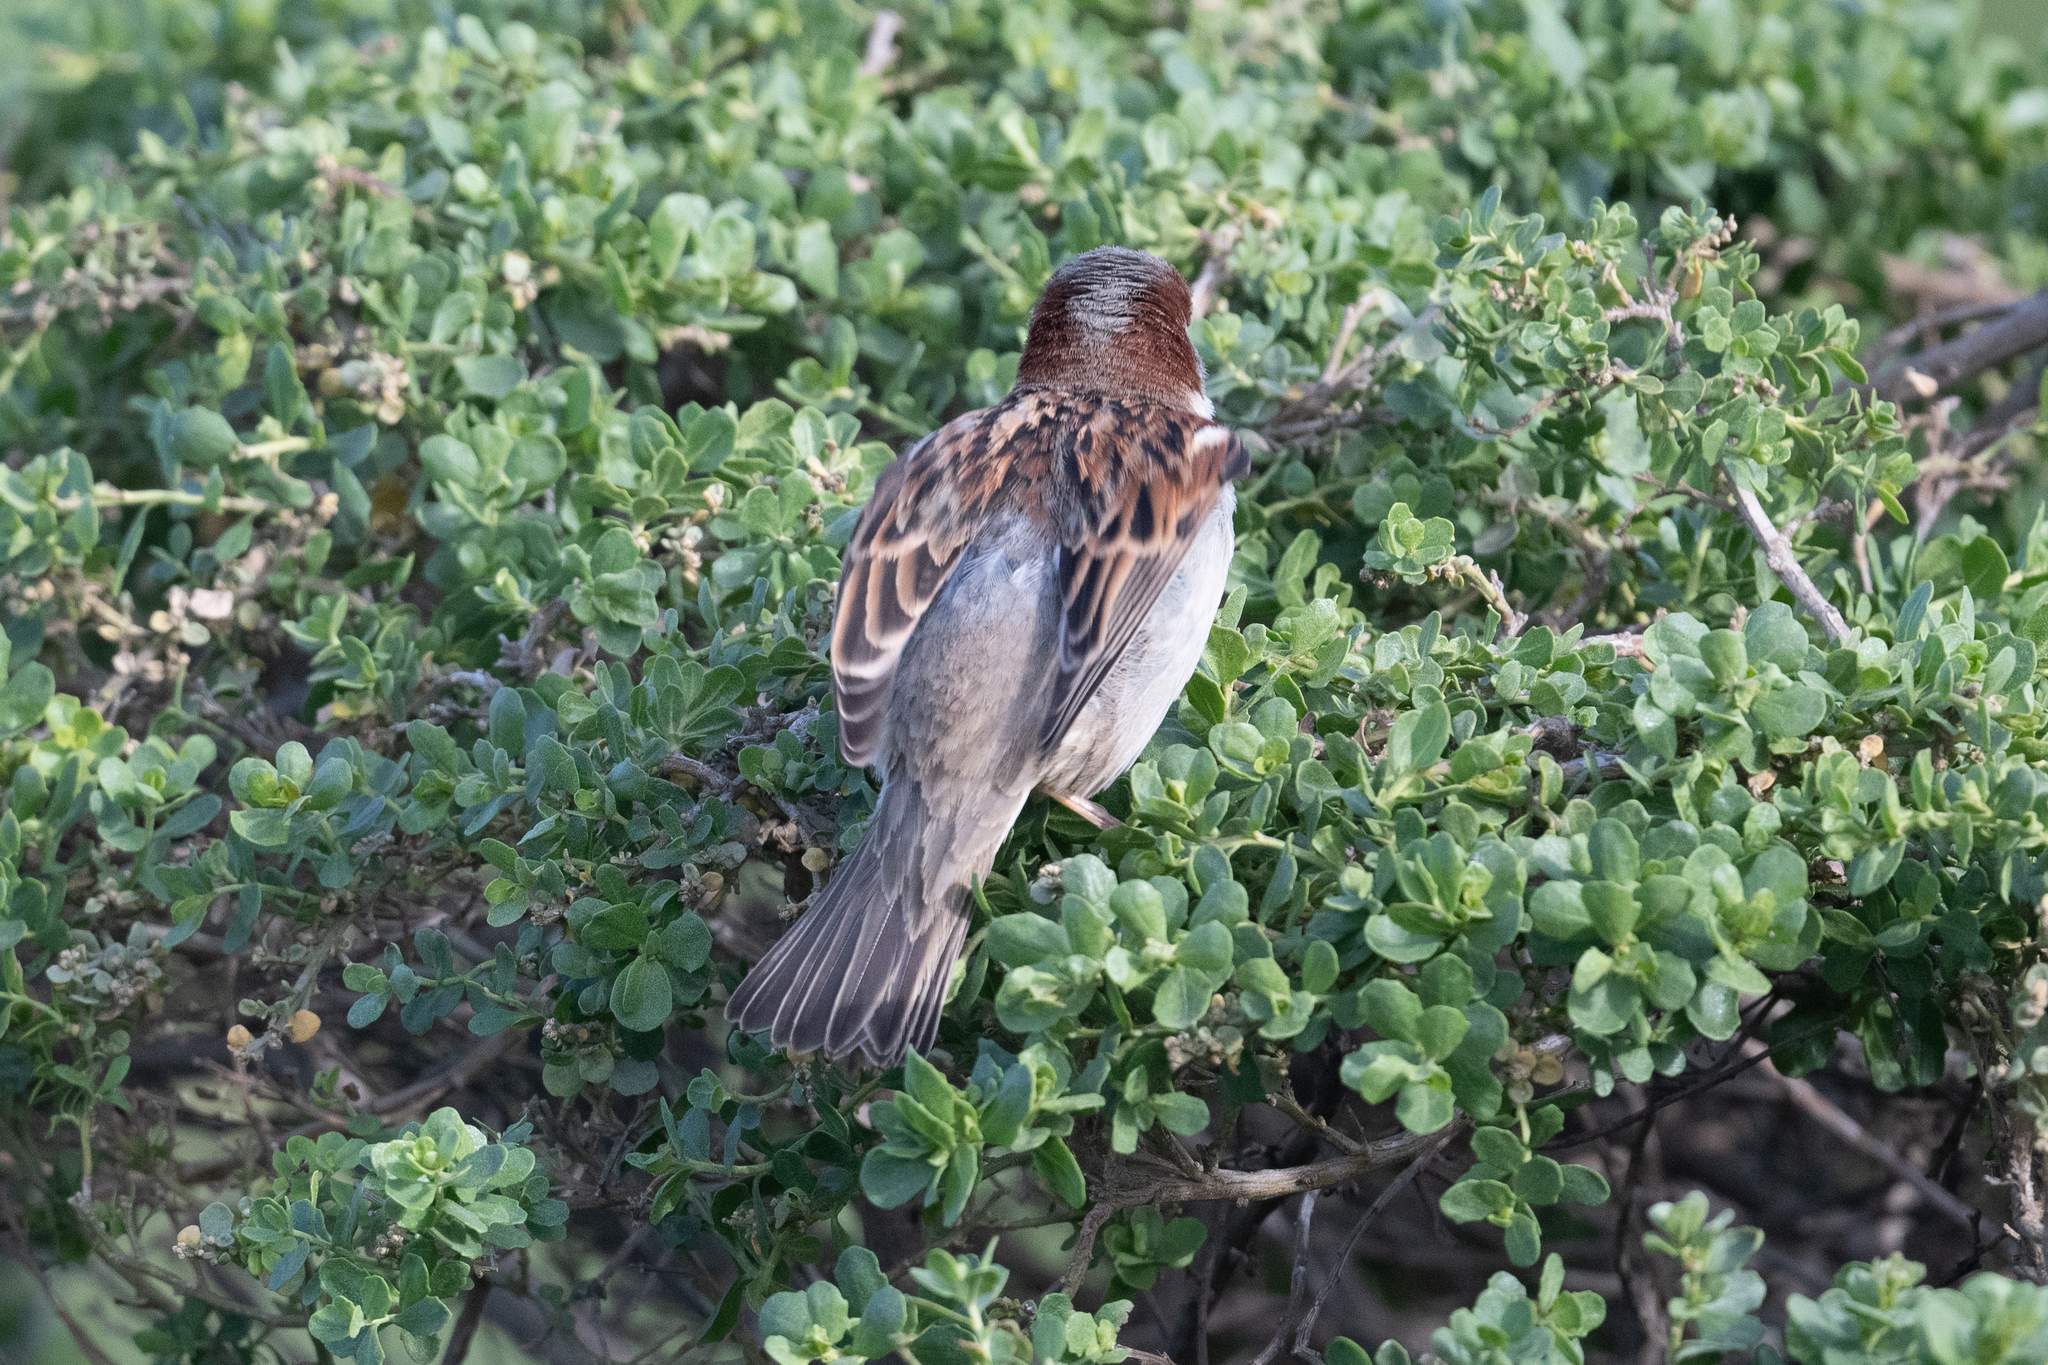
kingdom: Animalia
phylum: Chordata
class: Aves
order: Passeriformes
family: Passeridae
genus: Passer
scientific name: Passer domesticus
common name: House sparrow
